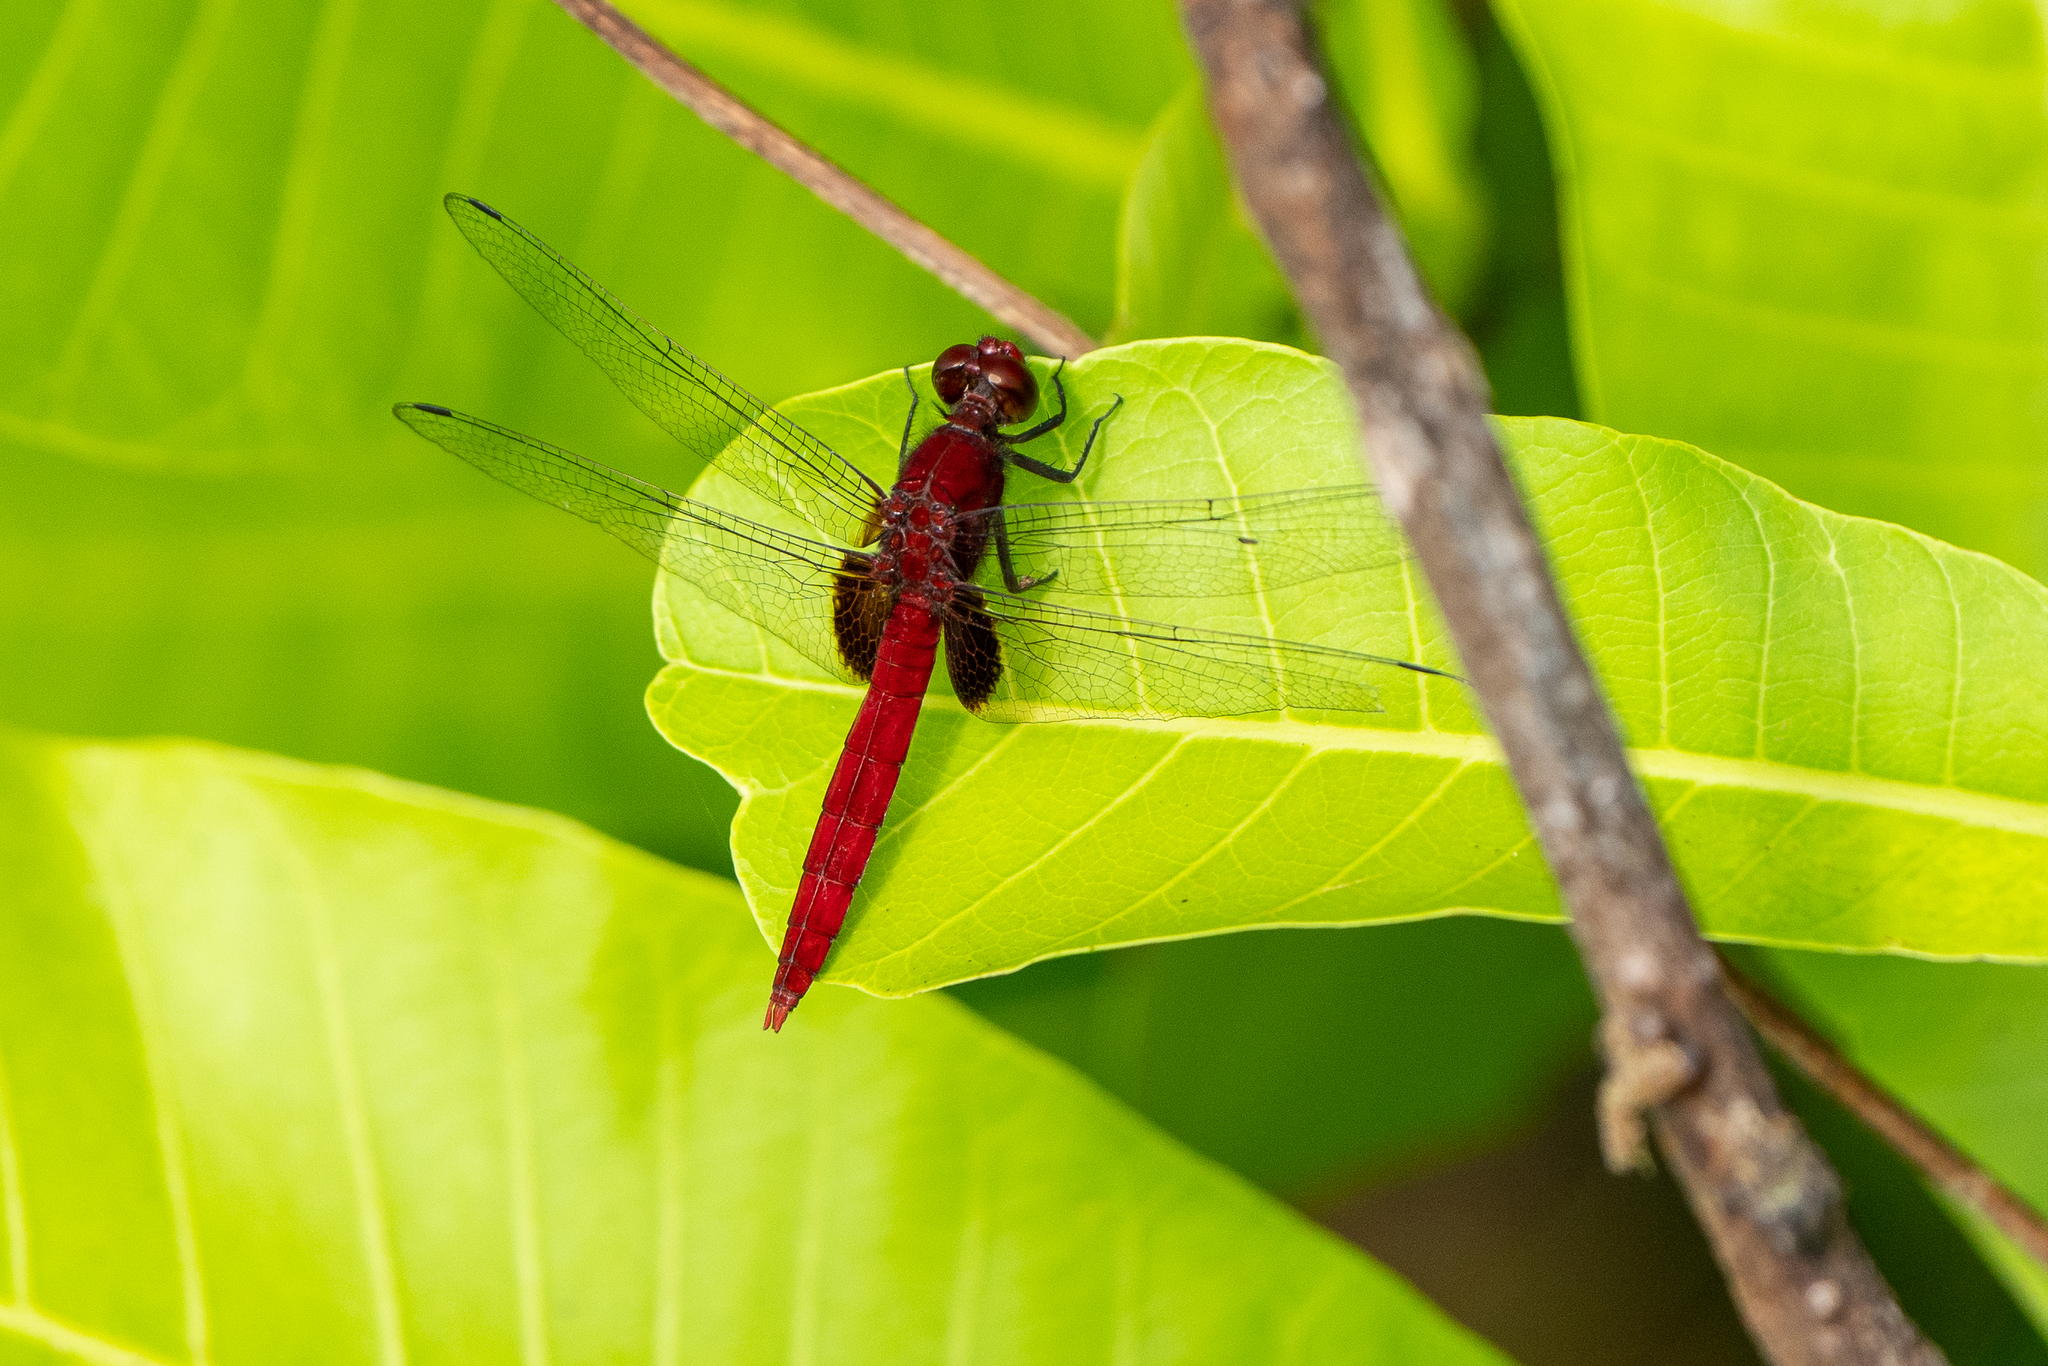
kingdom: Animalia
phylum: Arthropoda
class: Insecta
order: Odonata
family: Libellulidae
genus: Erythemis
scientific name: Erythemis mithroides
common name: Claret pondhawk
